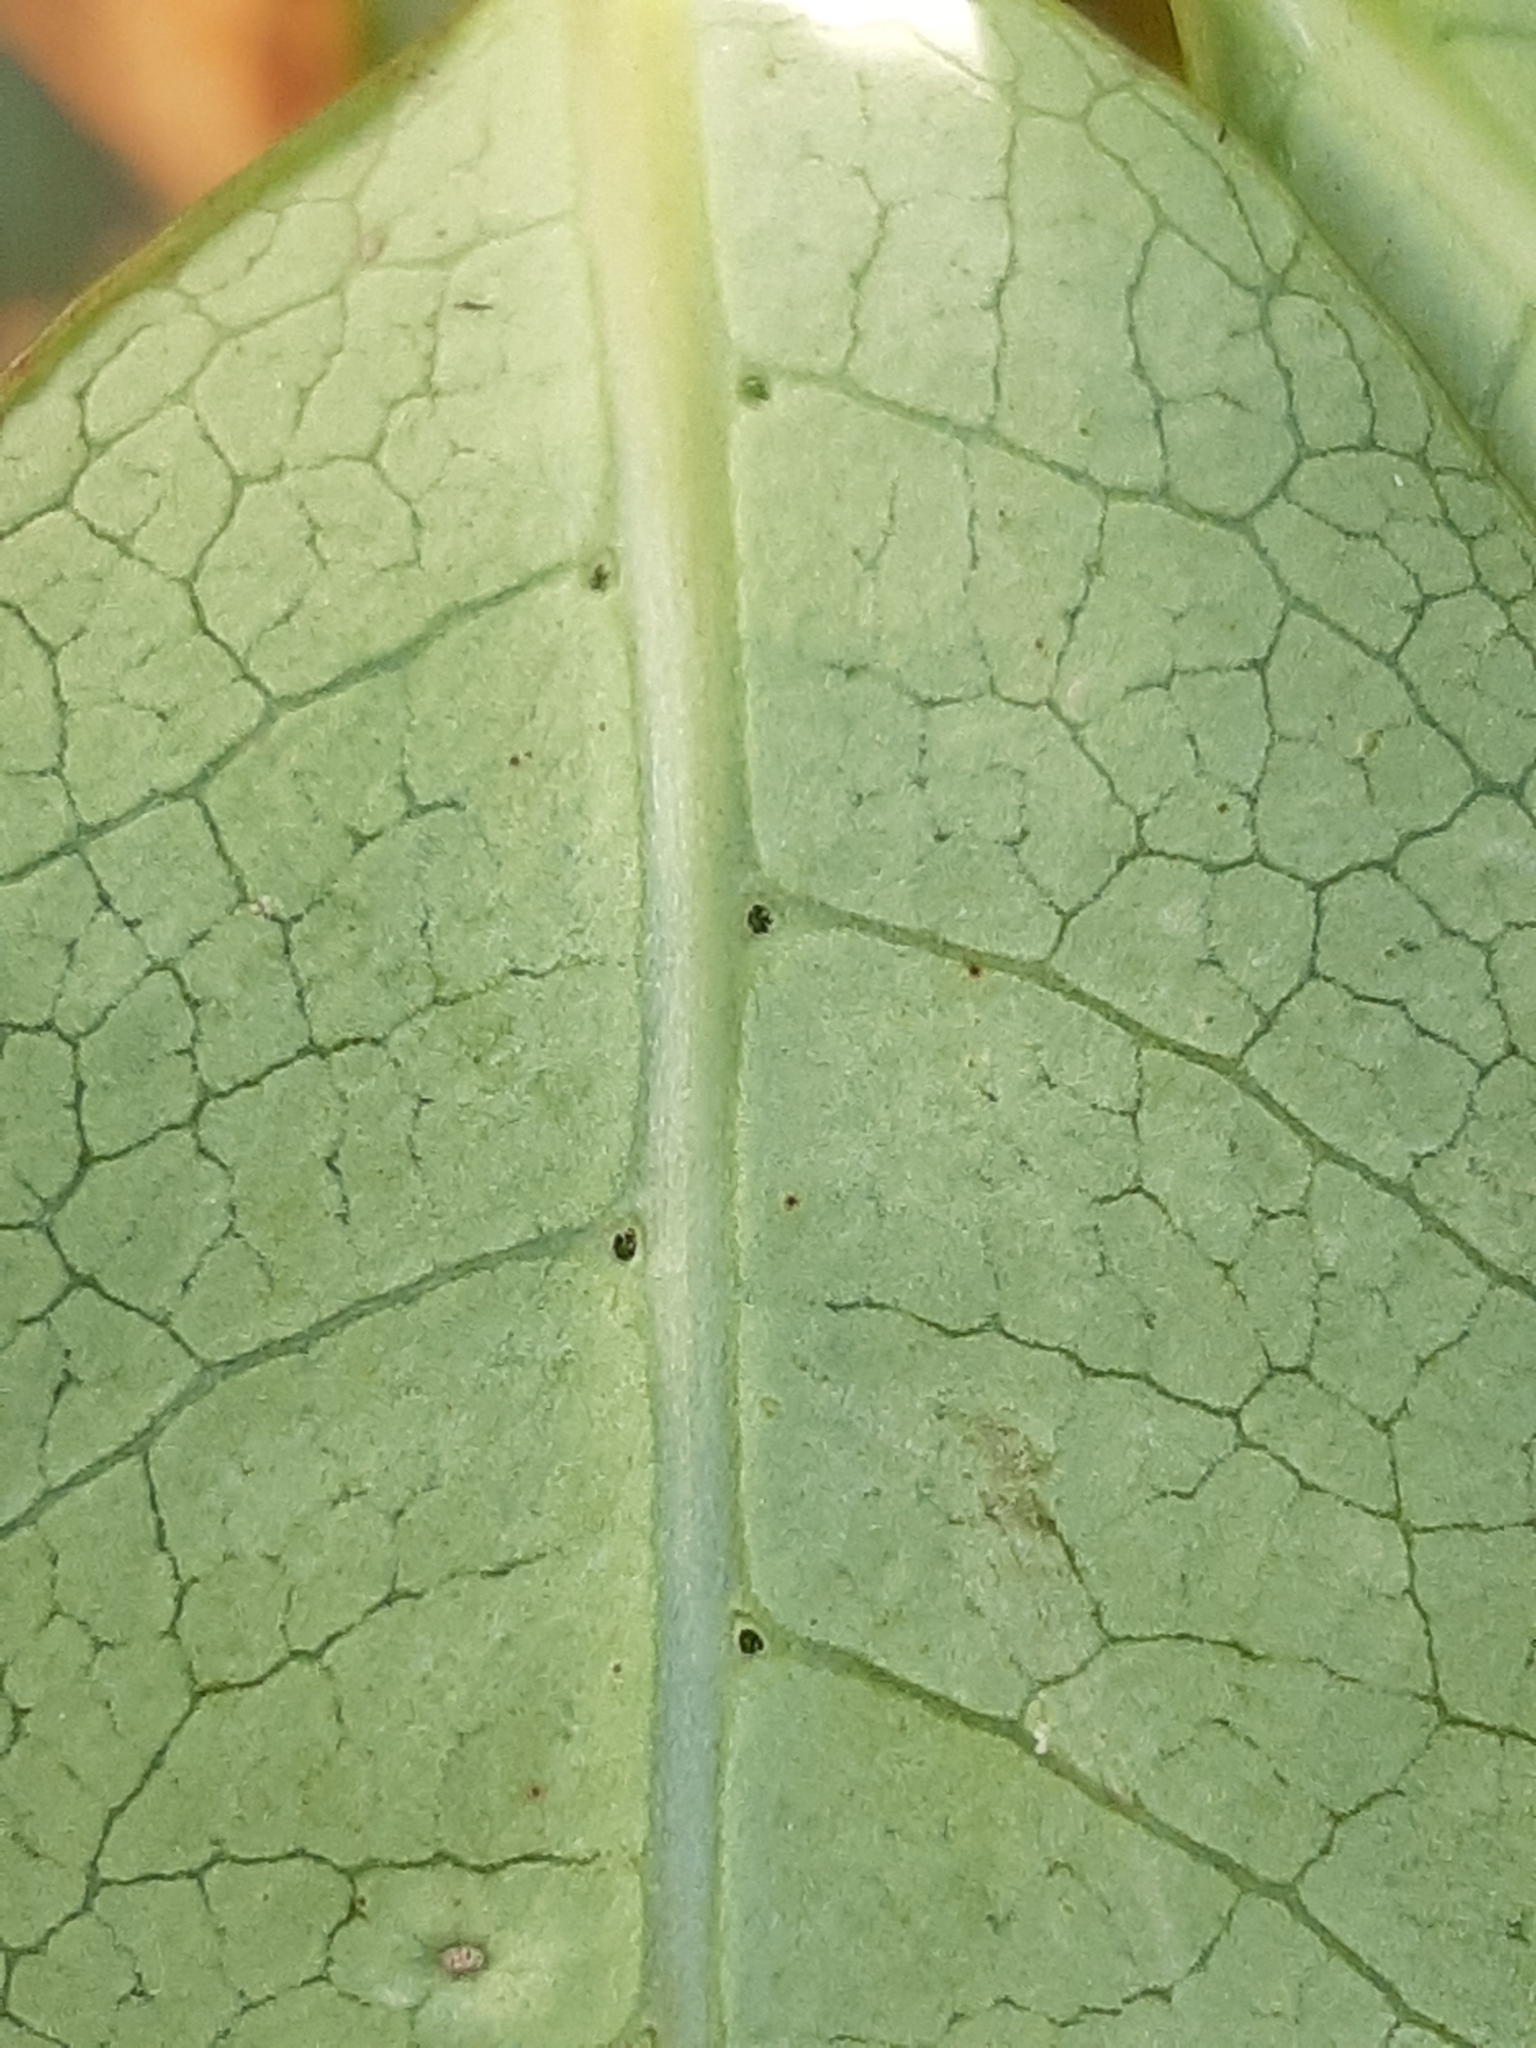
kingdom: Plantae
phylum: Tracheophyta
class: Magnoliopsida
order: Gentianales
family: Rubiaceae
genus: Coprosma
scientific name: Coprosma lucida
